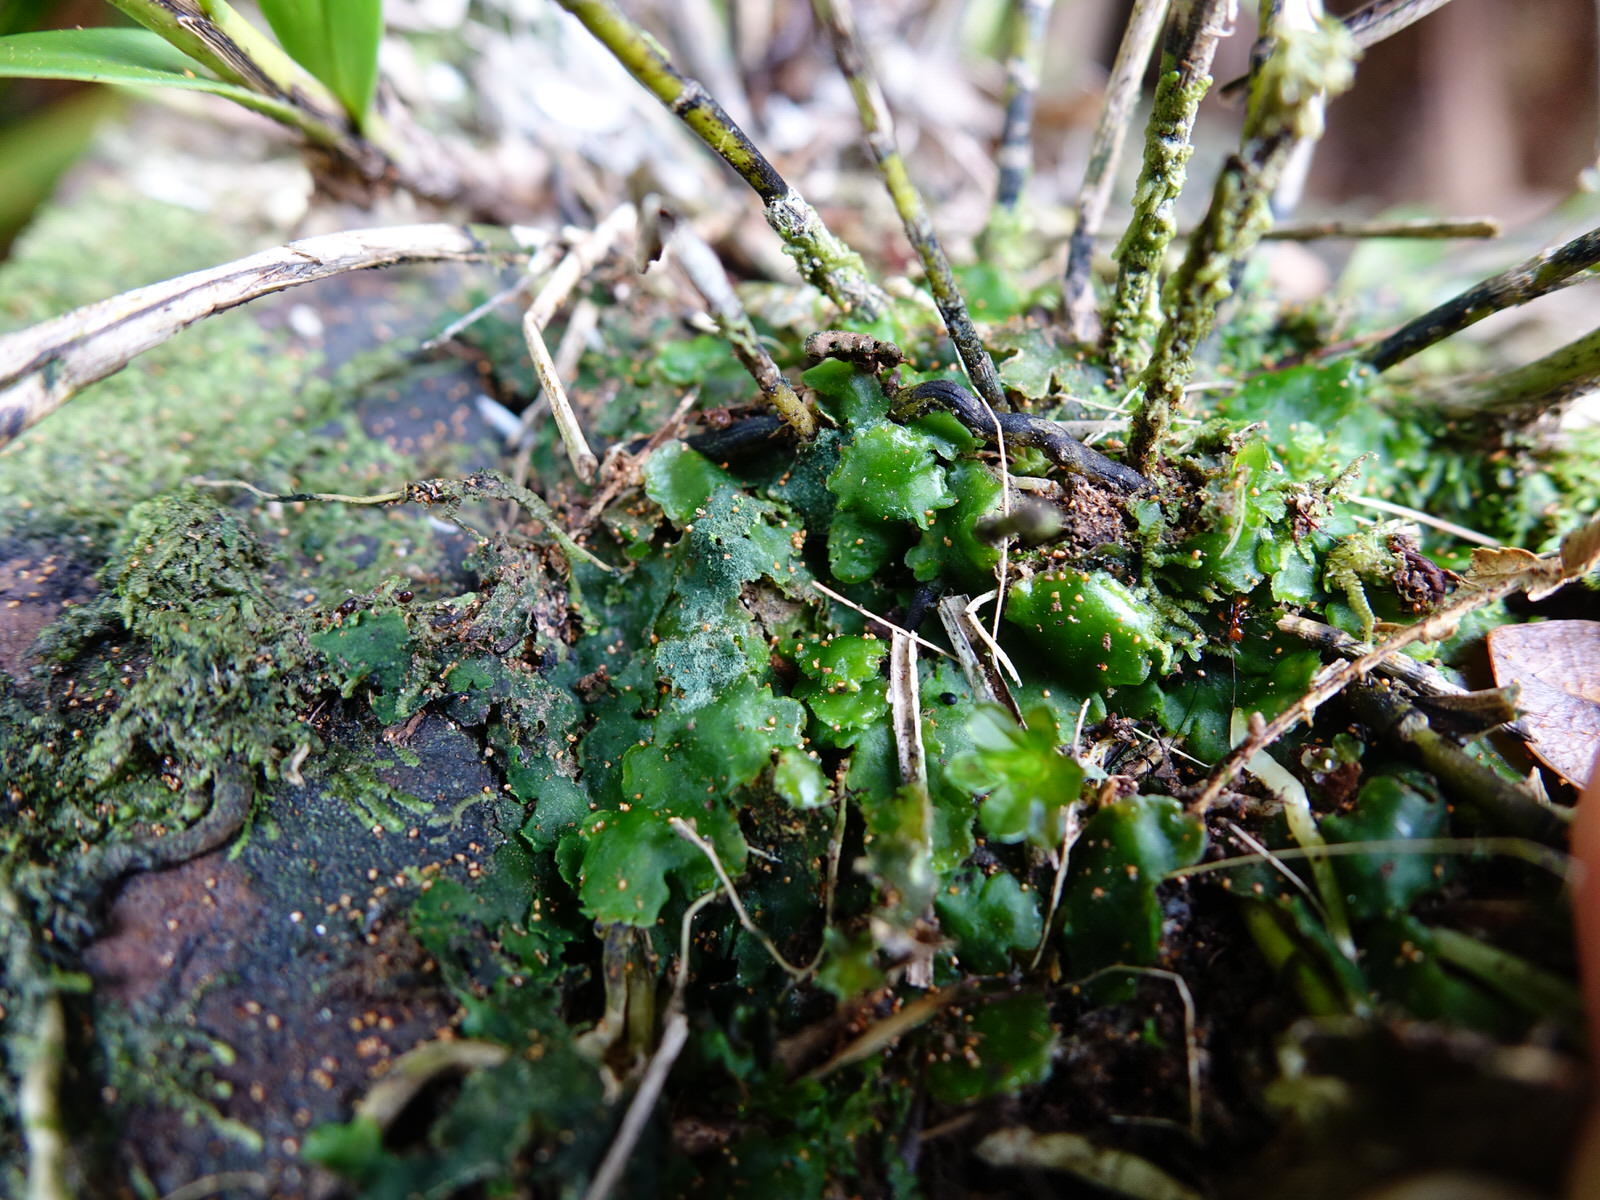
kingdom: Plantae
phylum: Tracheophyta
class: Liliopsida
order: Asparagales
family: Orchidaceae
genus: Earina
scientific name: Earina autumnalis
